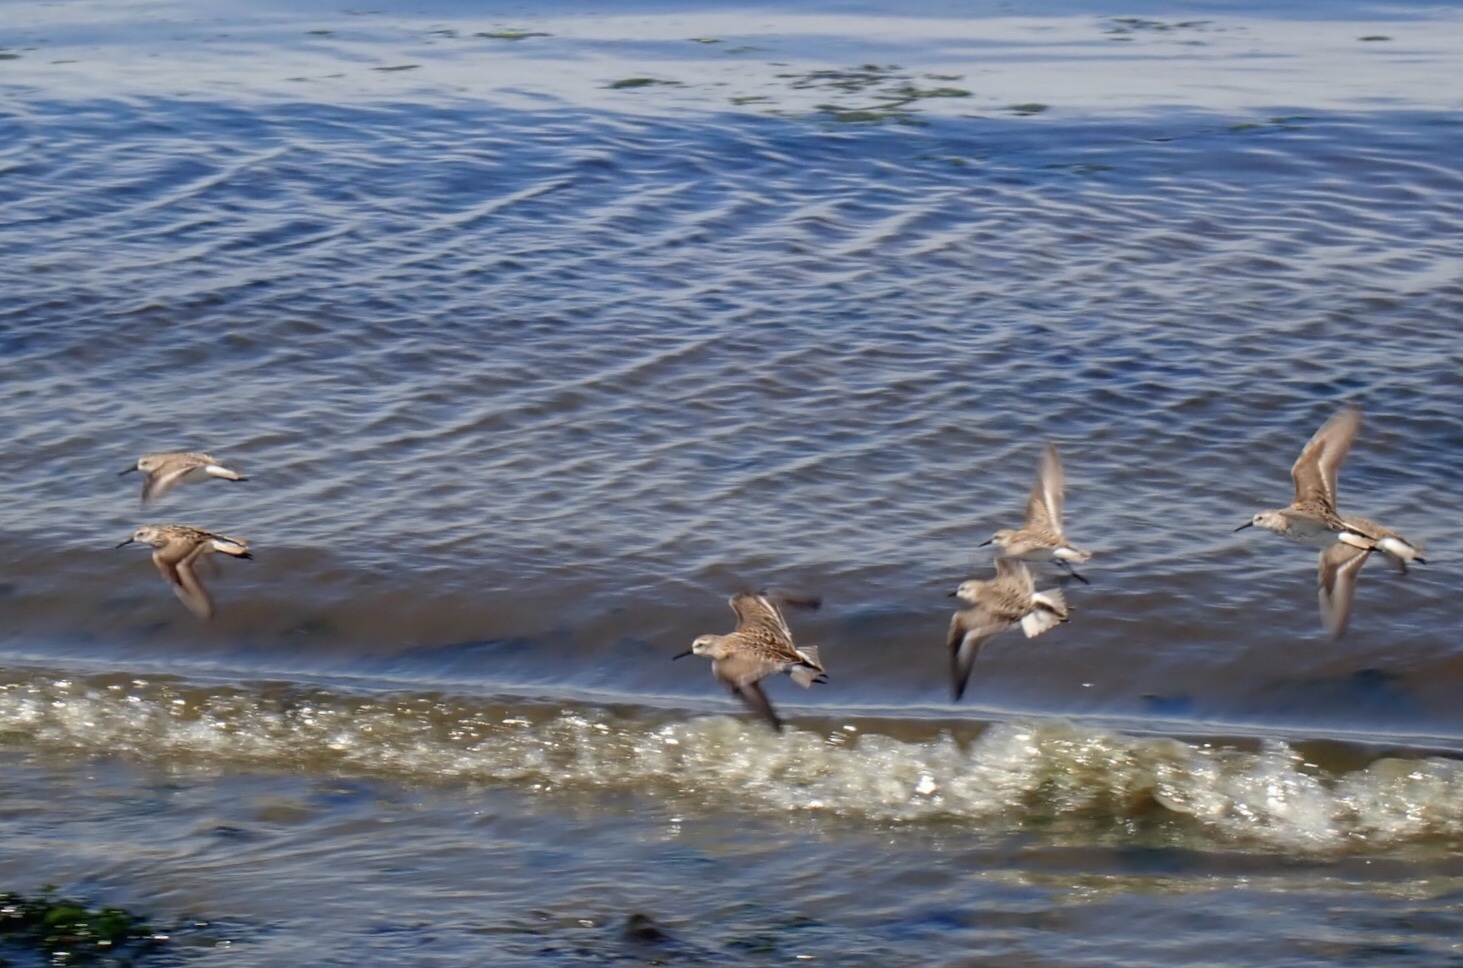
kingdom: Animalia
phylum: Chordata
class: Aves
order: Charadriiformes
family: Scolopacidae
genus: Calidris
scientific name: Calidris mauri
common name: Western sandpiper
